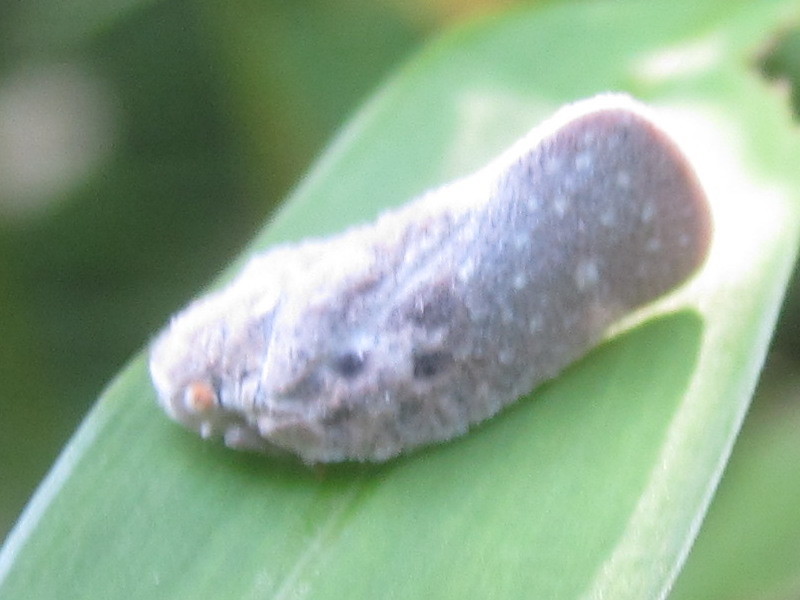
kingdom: Animalia
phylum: Arthropoda
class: Insecta
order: Hemiptera
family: Flatidae
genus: Metcalfa
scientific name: Metcalfa pruinosa
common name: Citrus flatid planthopper
